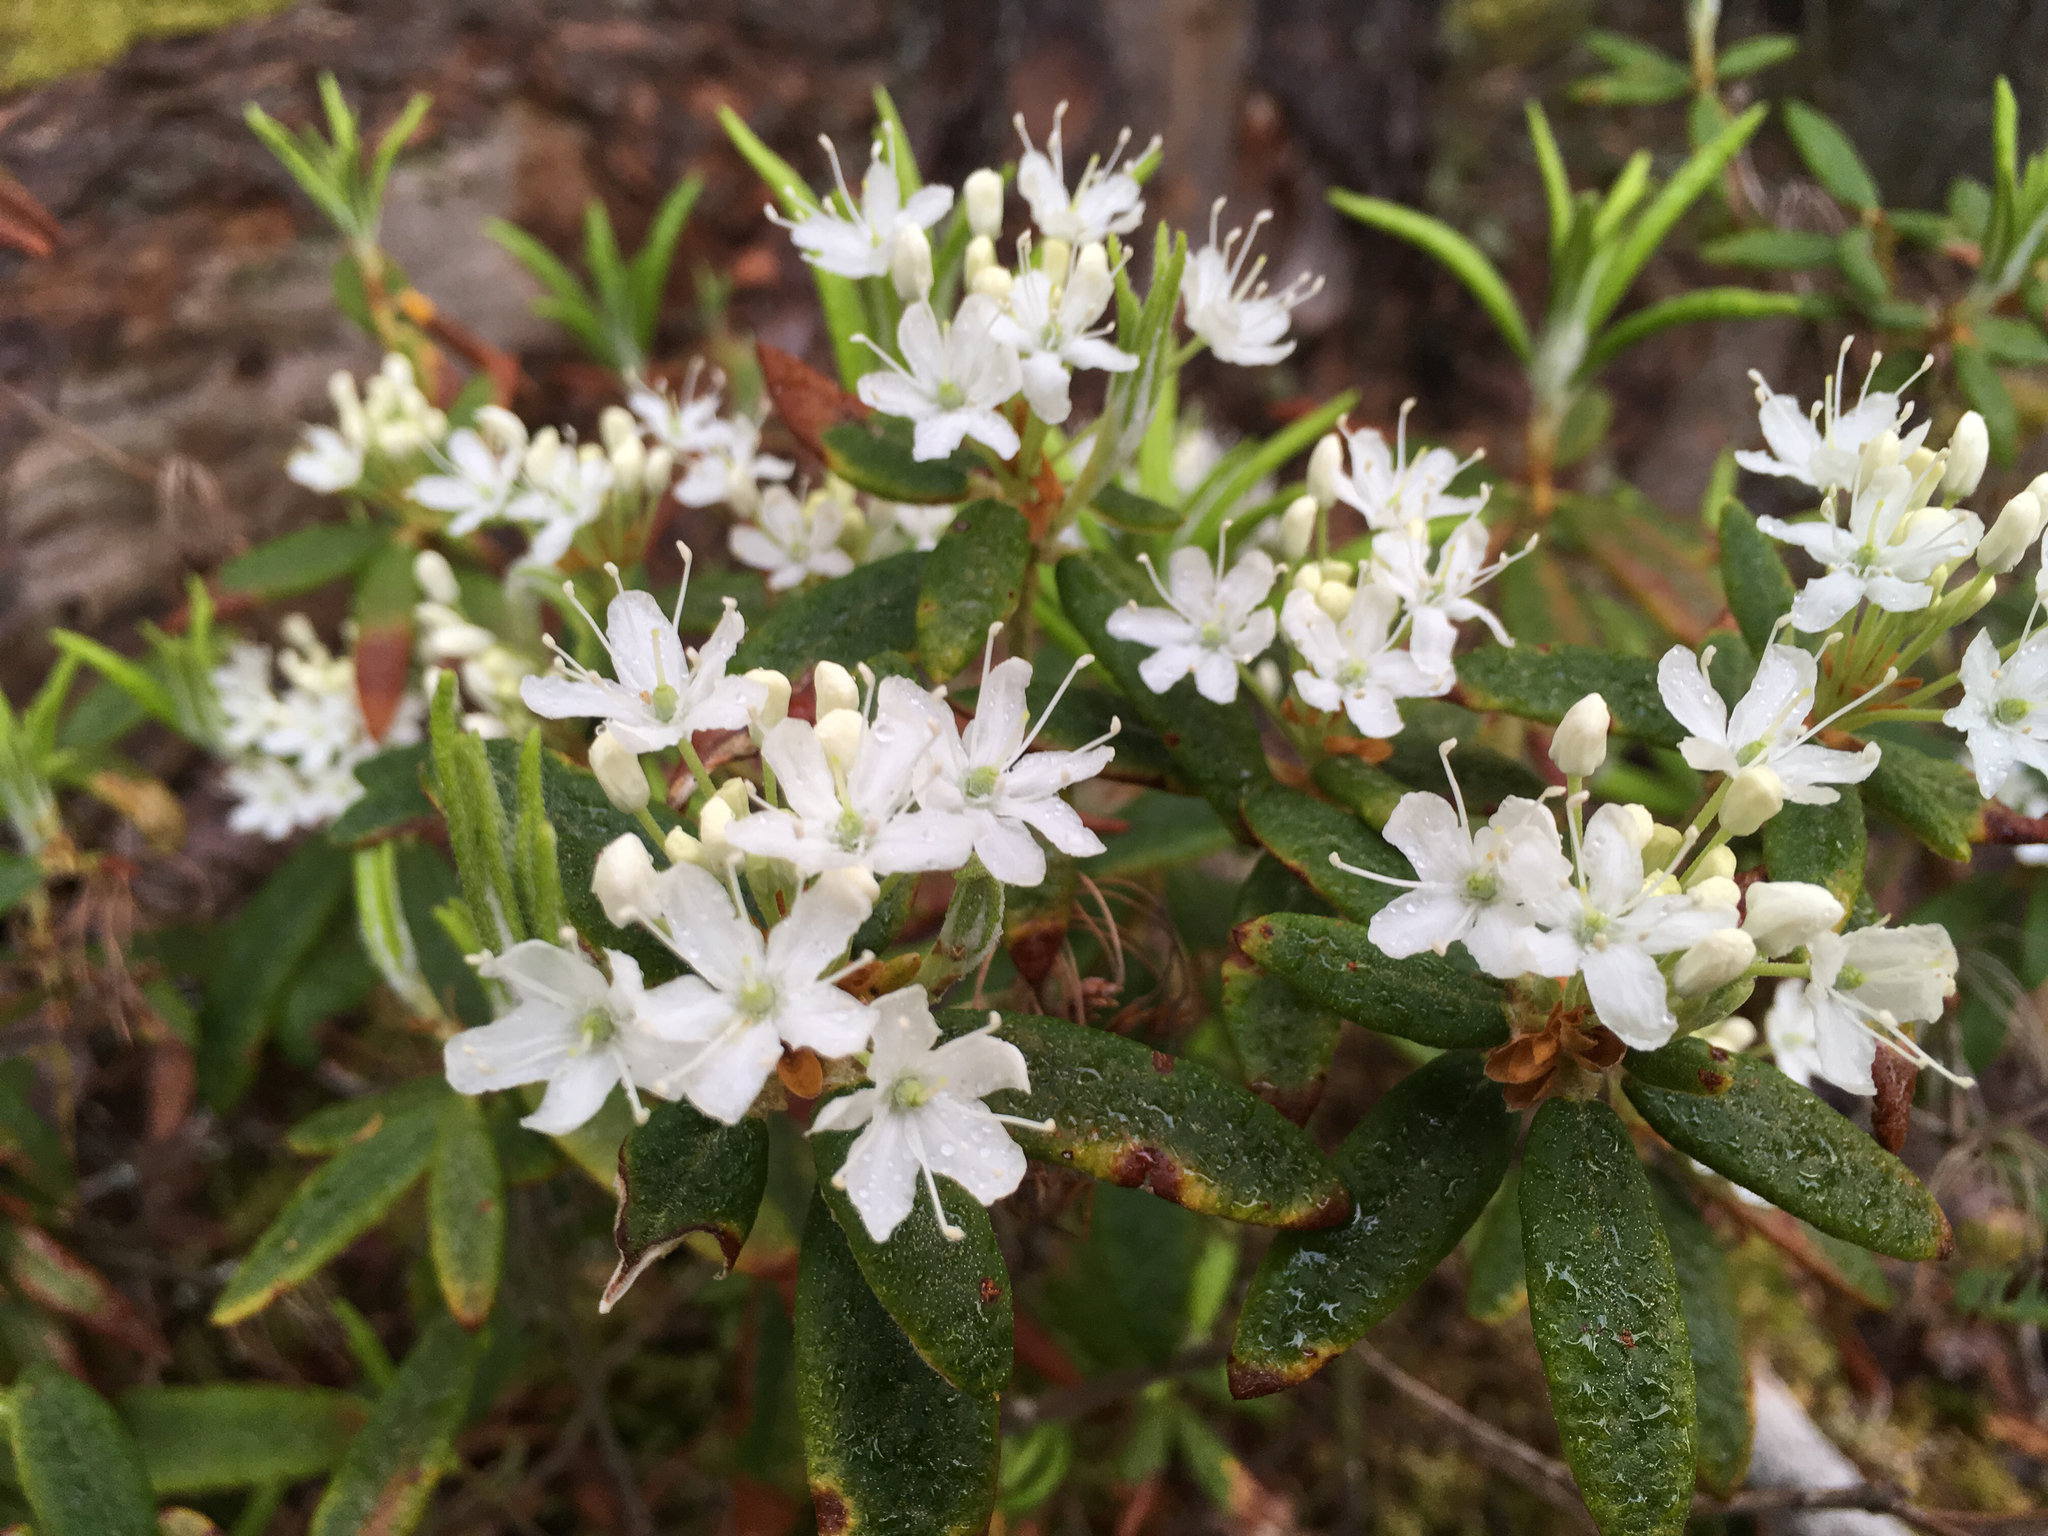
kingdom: Plantae
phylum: Tracheophyta
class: Magnoliopsida
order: Ericales
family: Ericaceae
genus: Rhododendron
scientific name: Rhododendron groenlandicum
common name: Bog labrador tea
